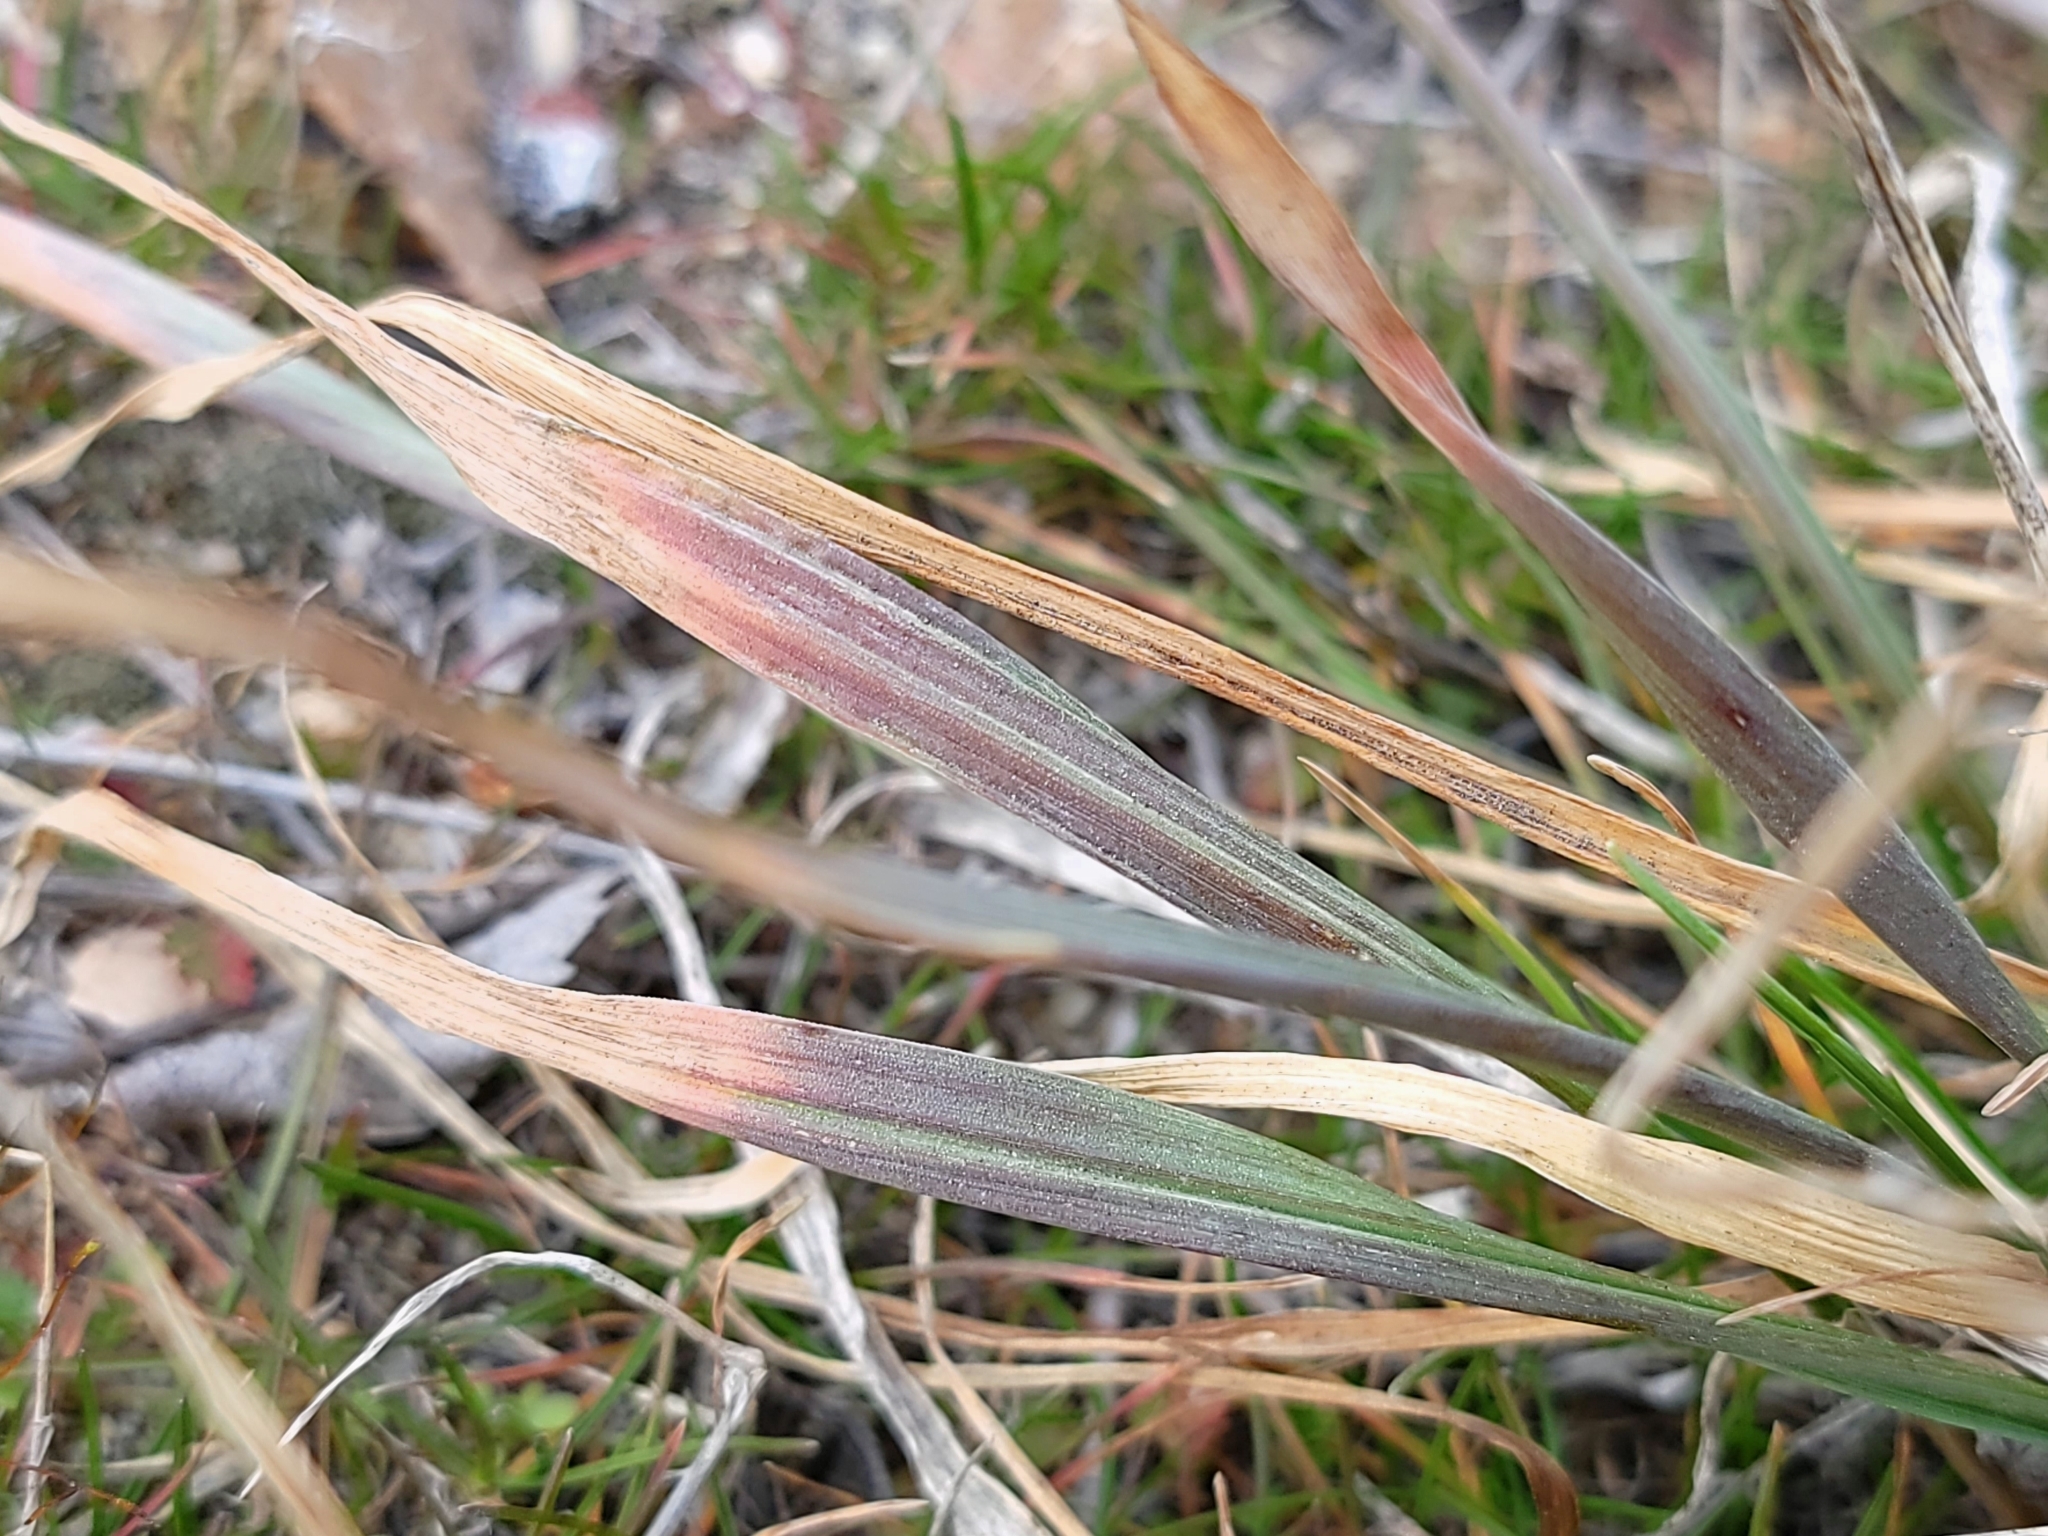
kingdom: Plantae
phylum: Tracheophyta
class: Liliopsida
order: Poales
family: Poaceae
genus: Agropyron
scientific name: Agropyron cristatum
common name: Crested wheatgrass
